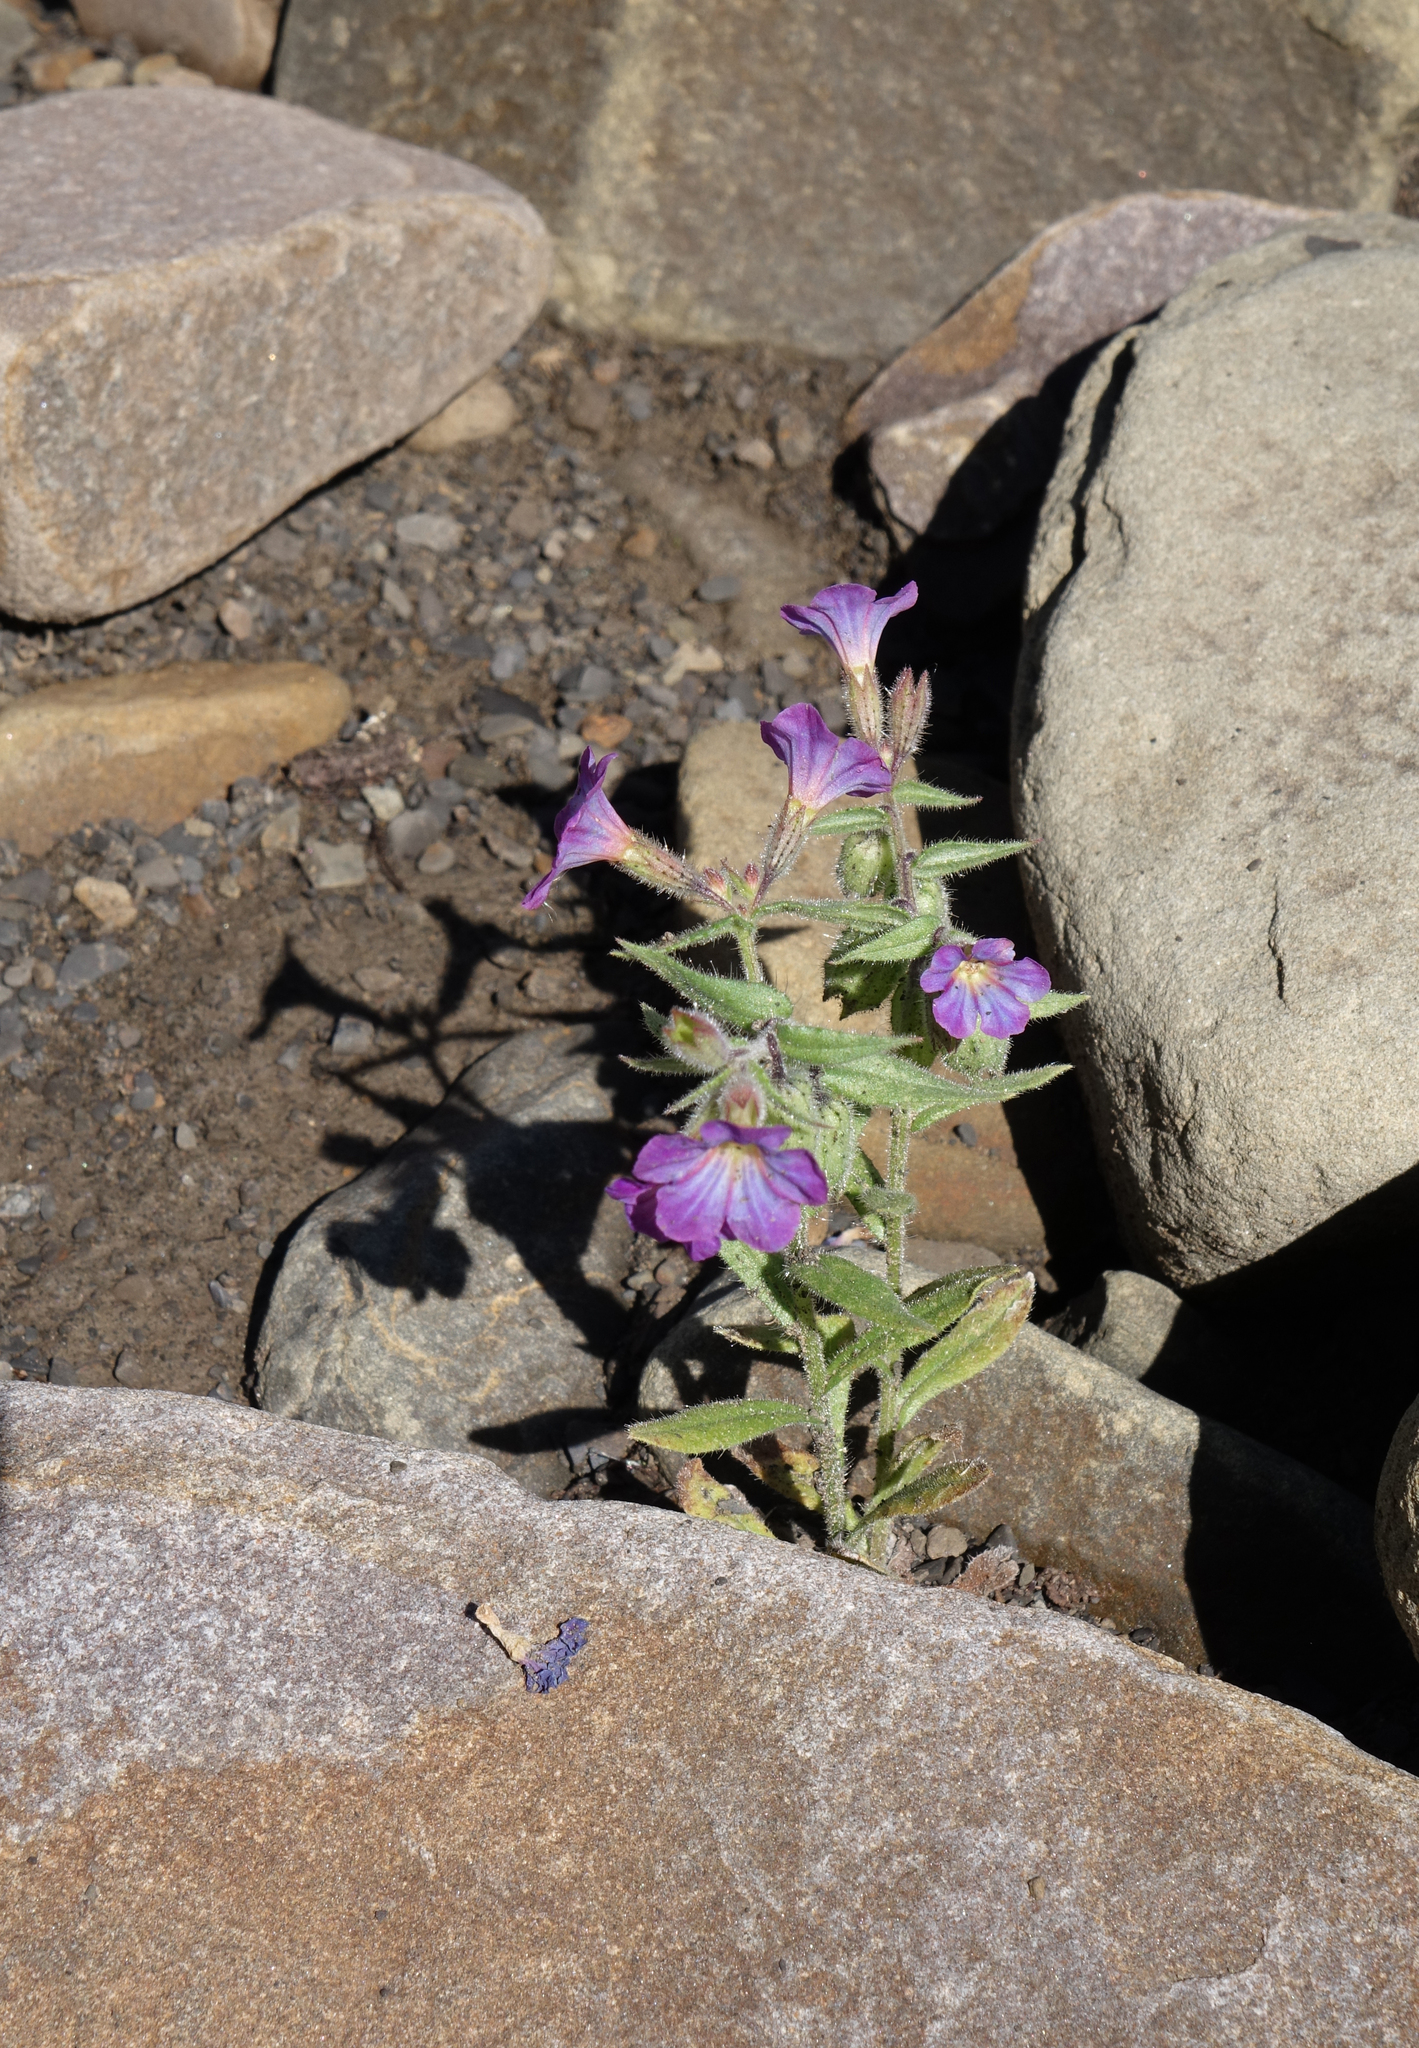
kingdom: Plantae
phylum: Tracheophyta
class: Magnoliopsida
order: Boraginales
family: Boraginaceae
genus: Nonea
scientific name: Nonea versicolor
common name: Varied monkswort
